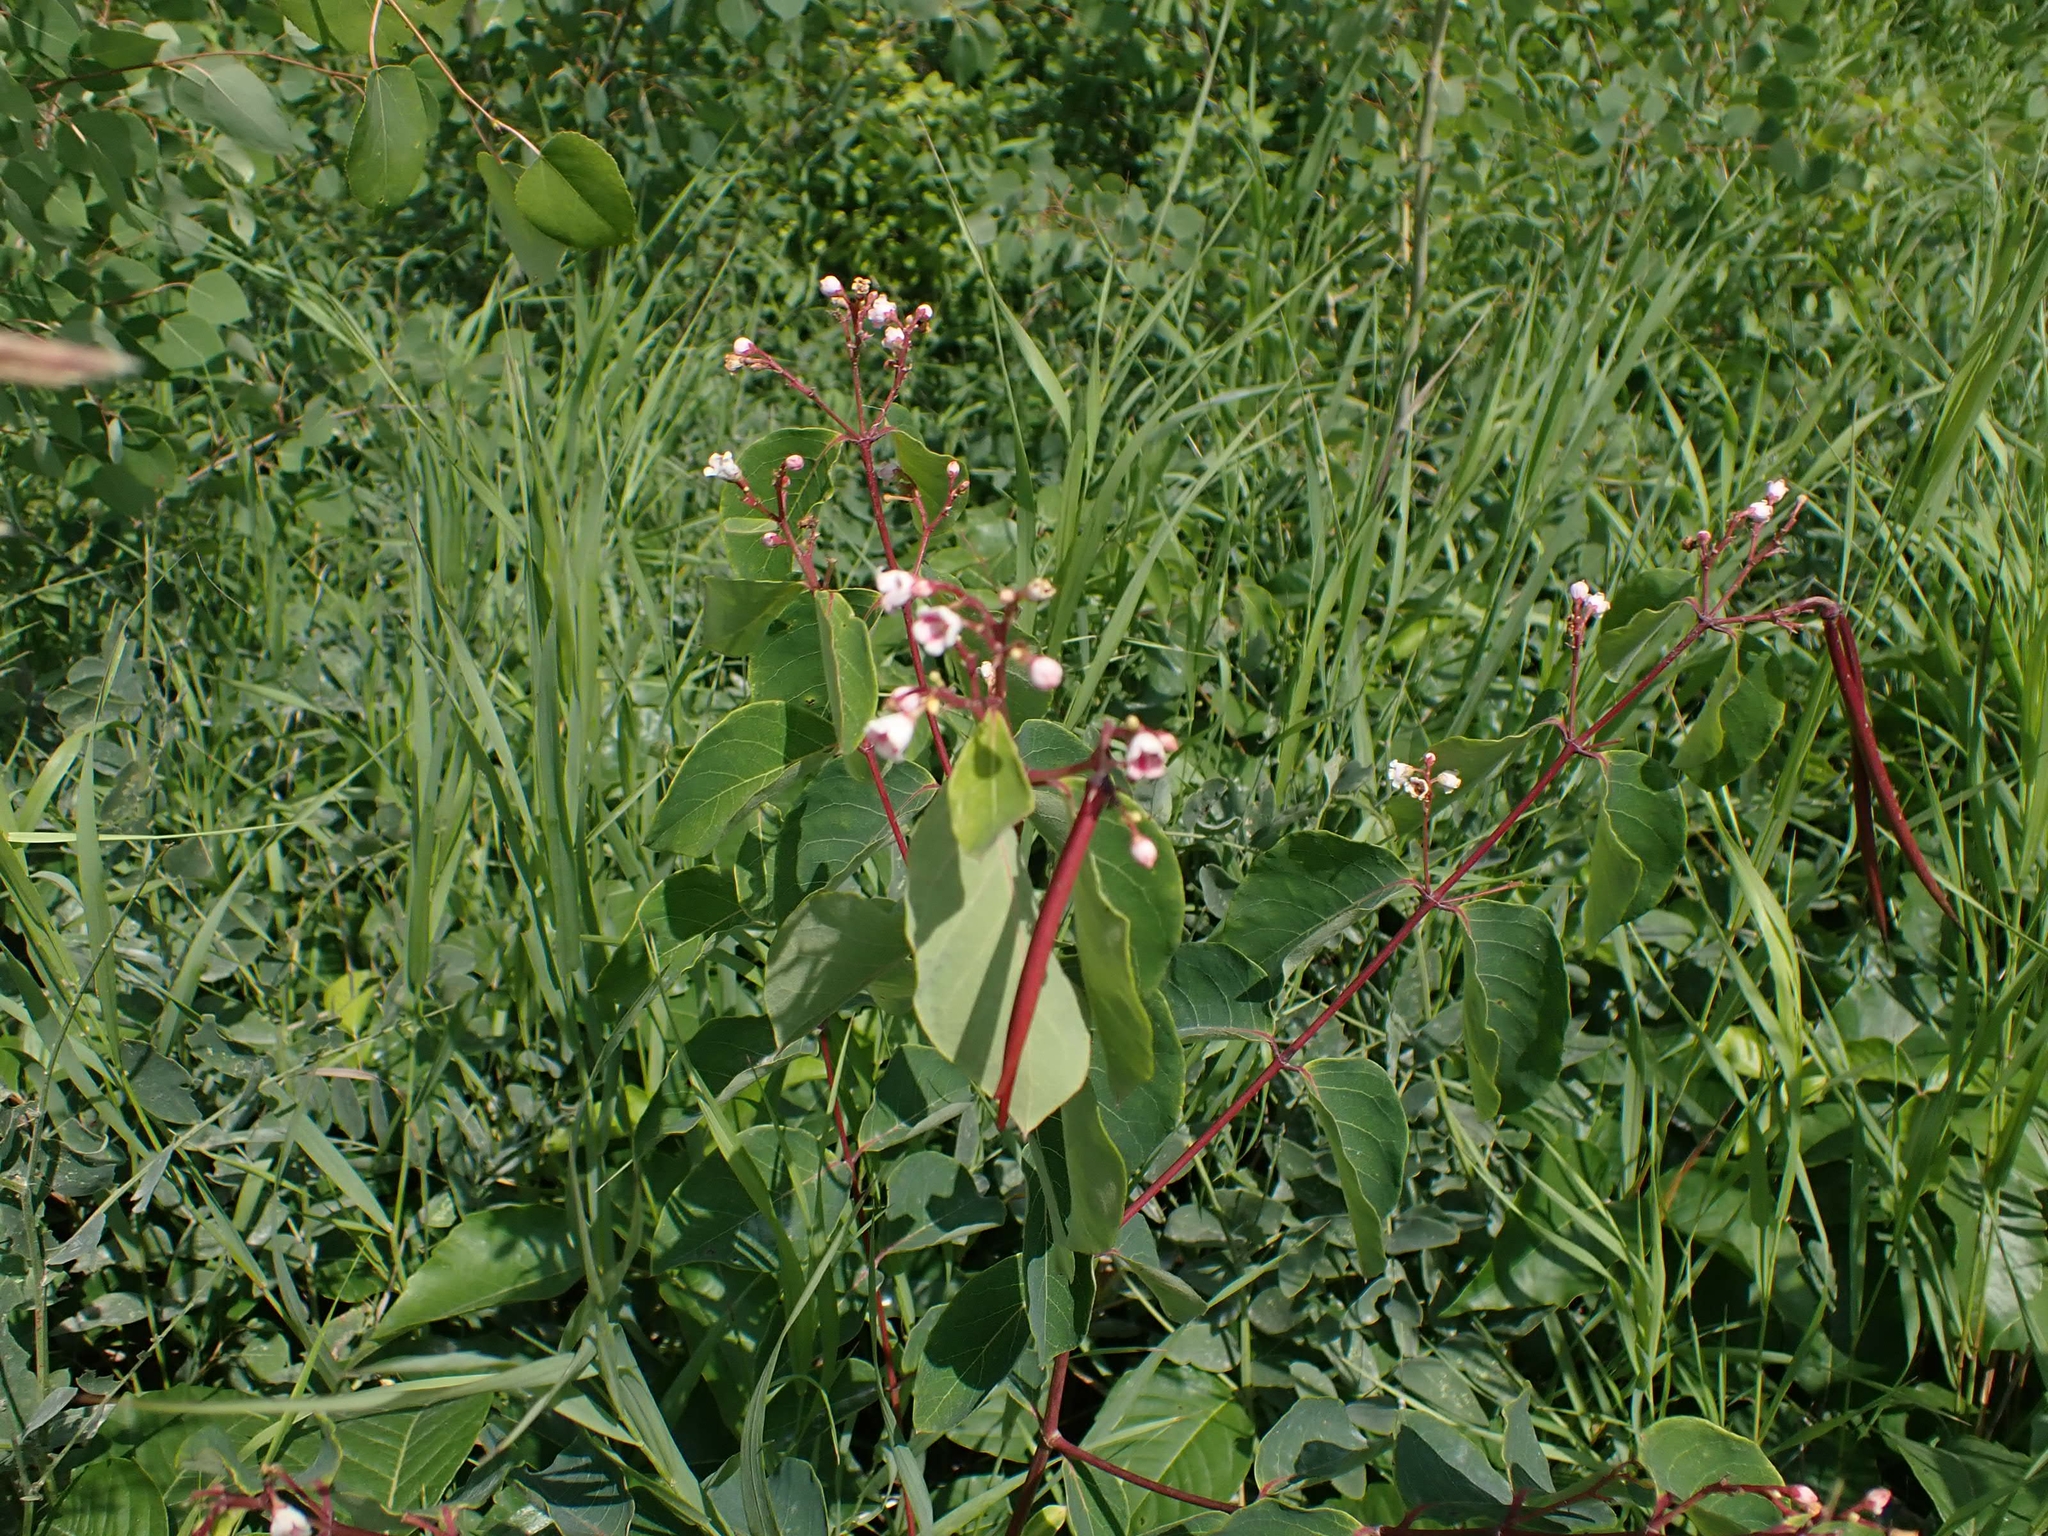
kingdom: Plantae
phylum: Tracheophyta
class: Magnoliopsida
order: Gentianales
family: Apocynaceae
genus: Apocynum
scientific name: Apocynum androsaemifolium
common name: Spreading dogbane
